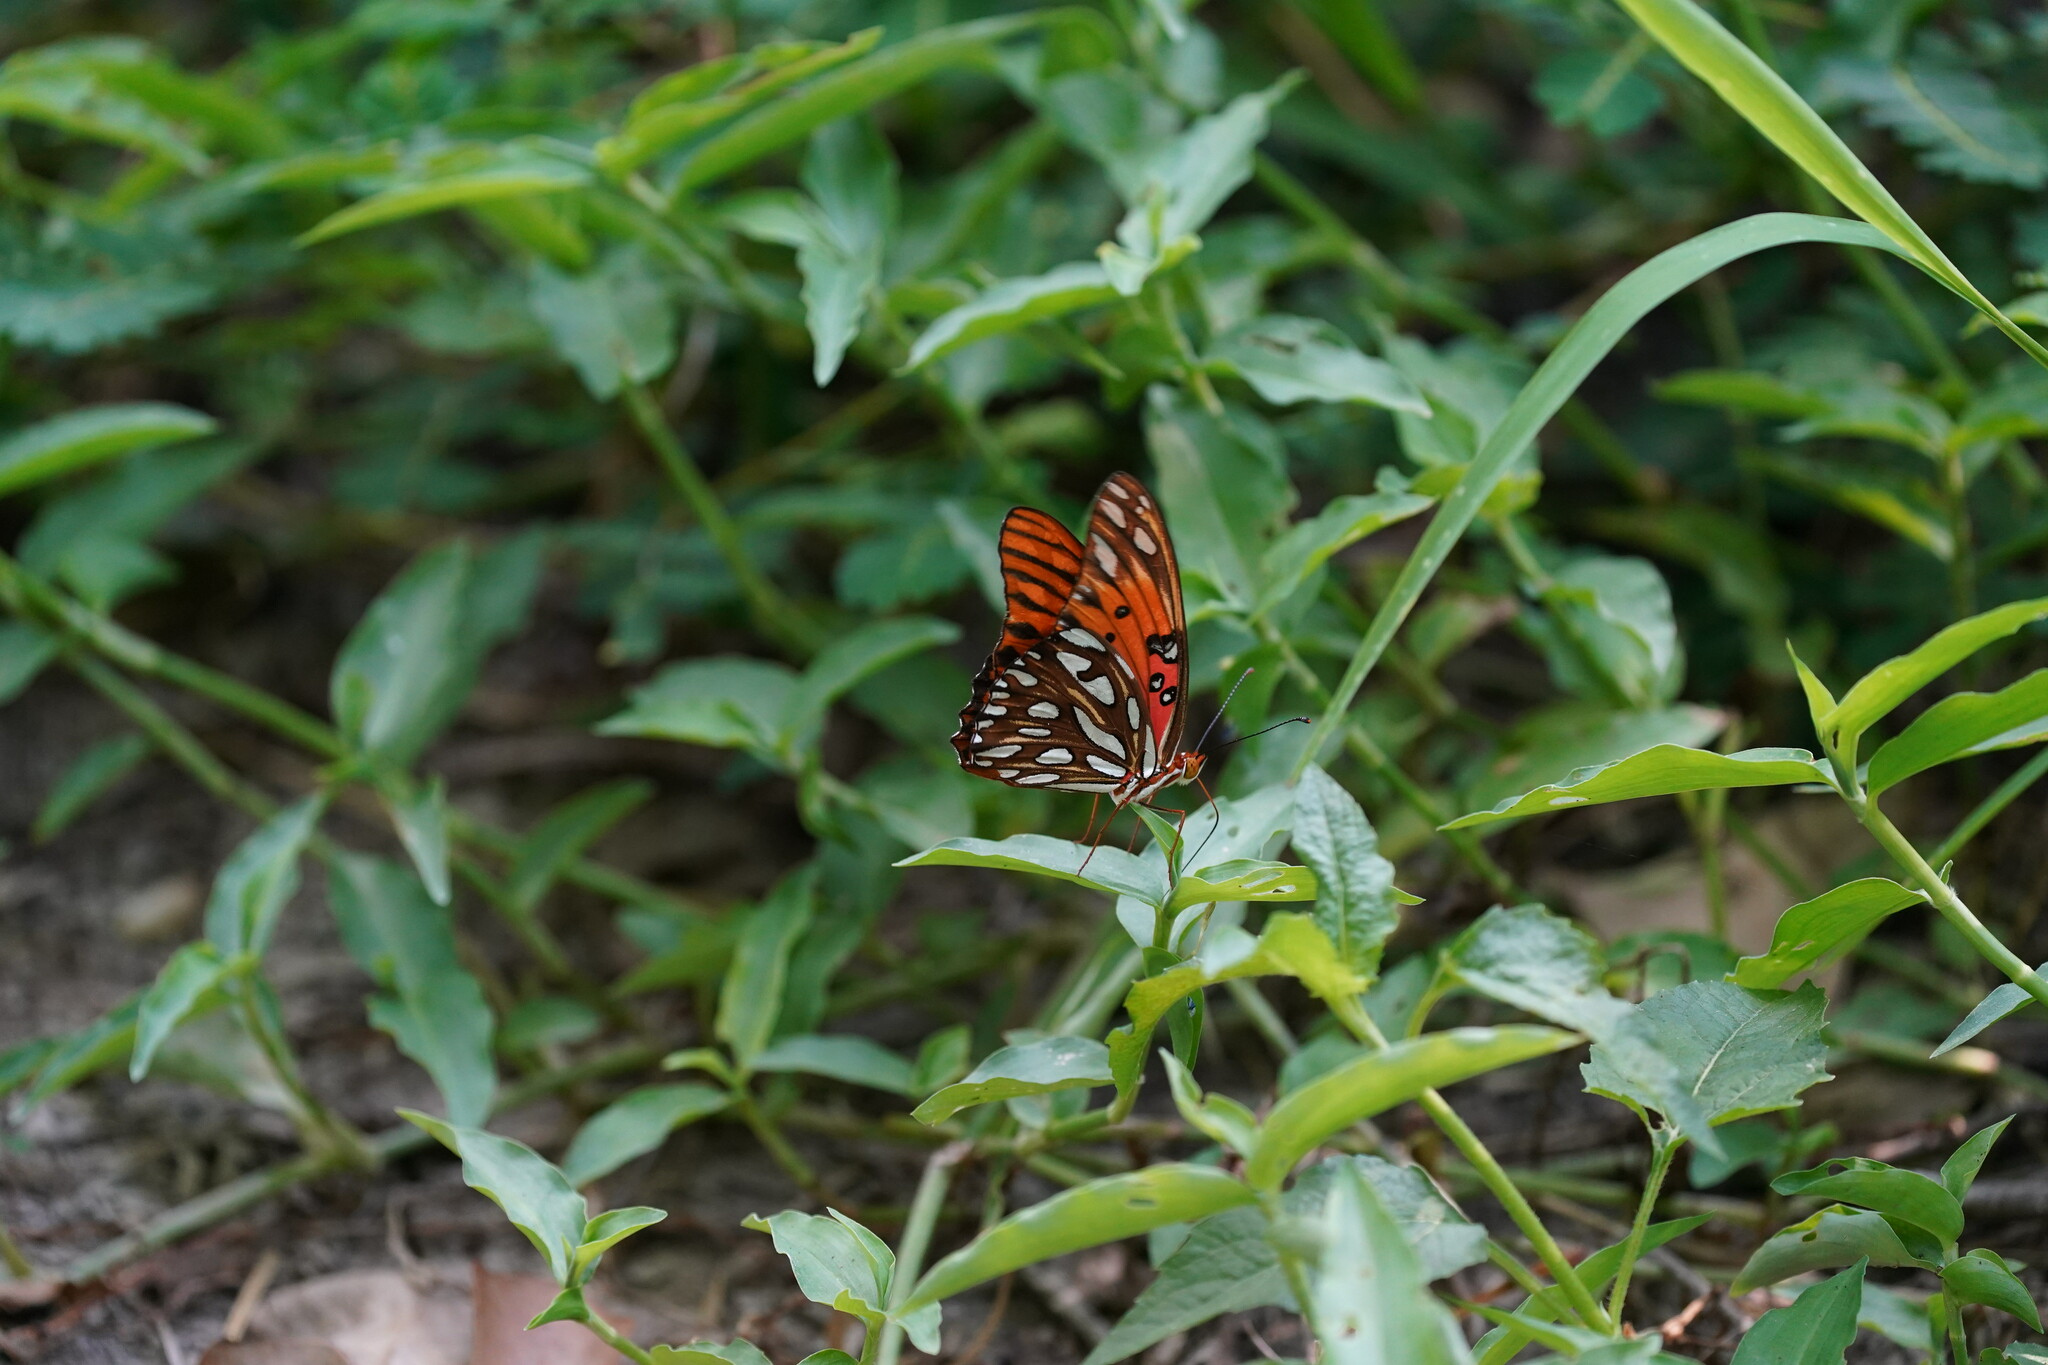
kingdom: Animalia
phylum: Arthropoda
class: Insecta
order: Lepidoptera
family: Nymphalidae
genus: Dione
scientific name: Dione vanillae
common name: Gulf fritillary
